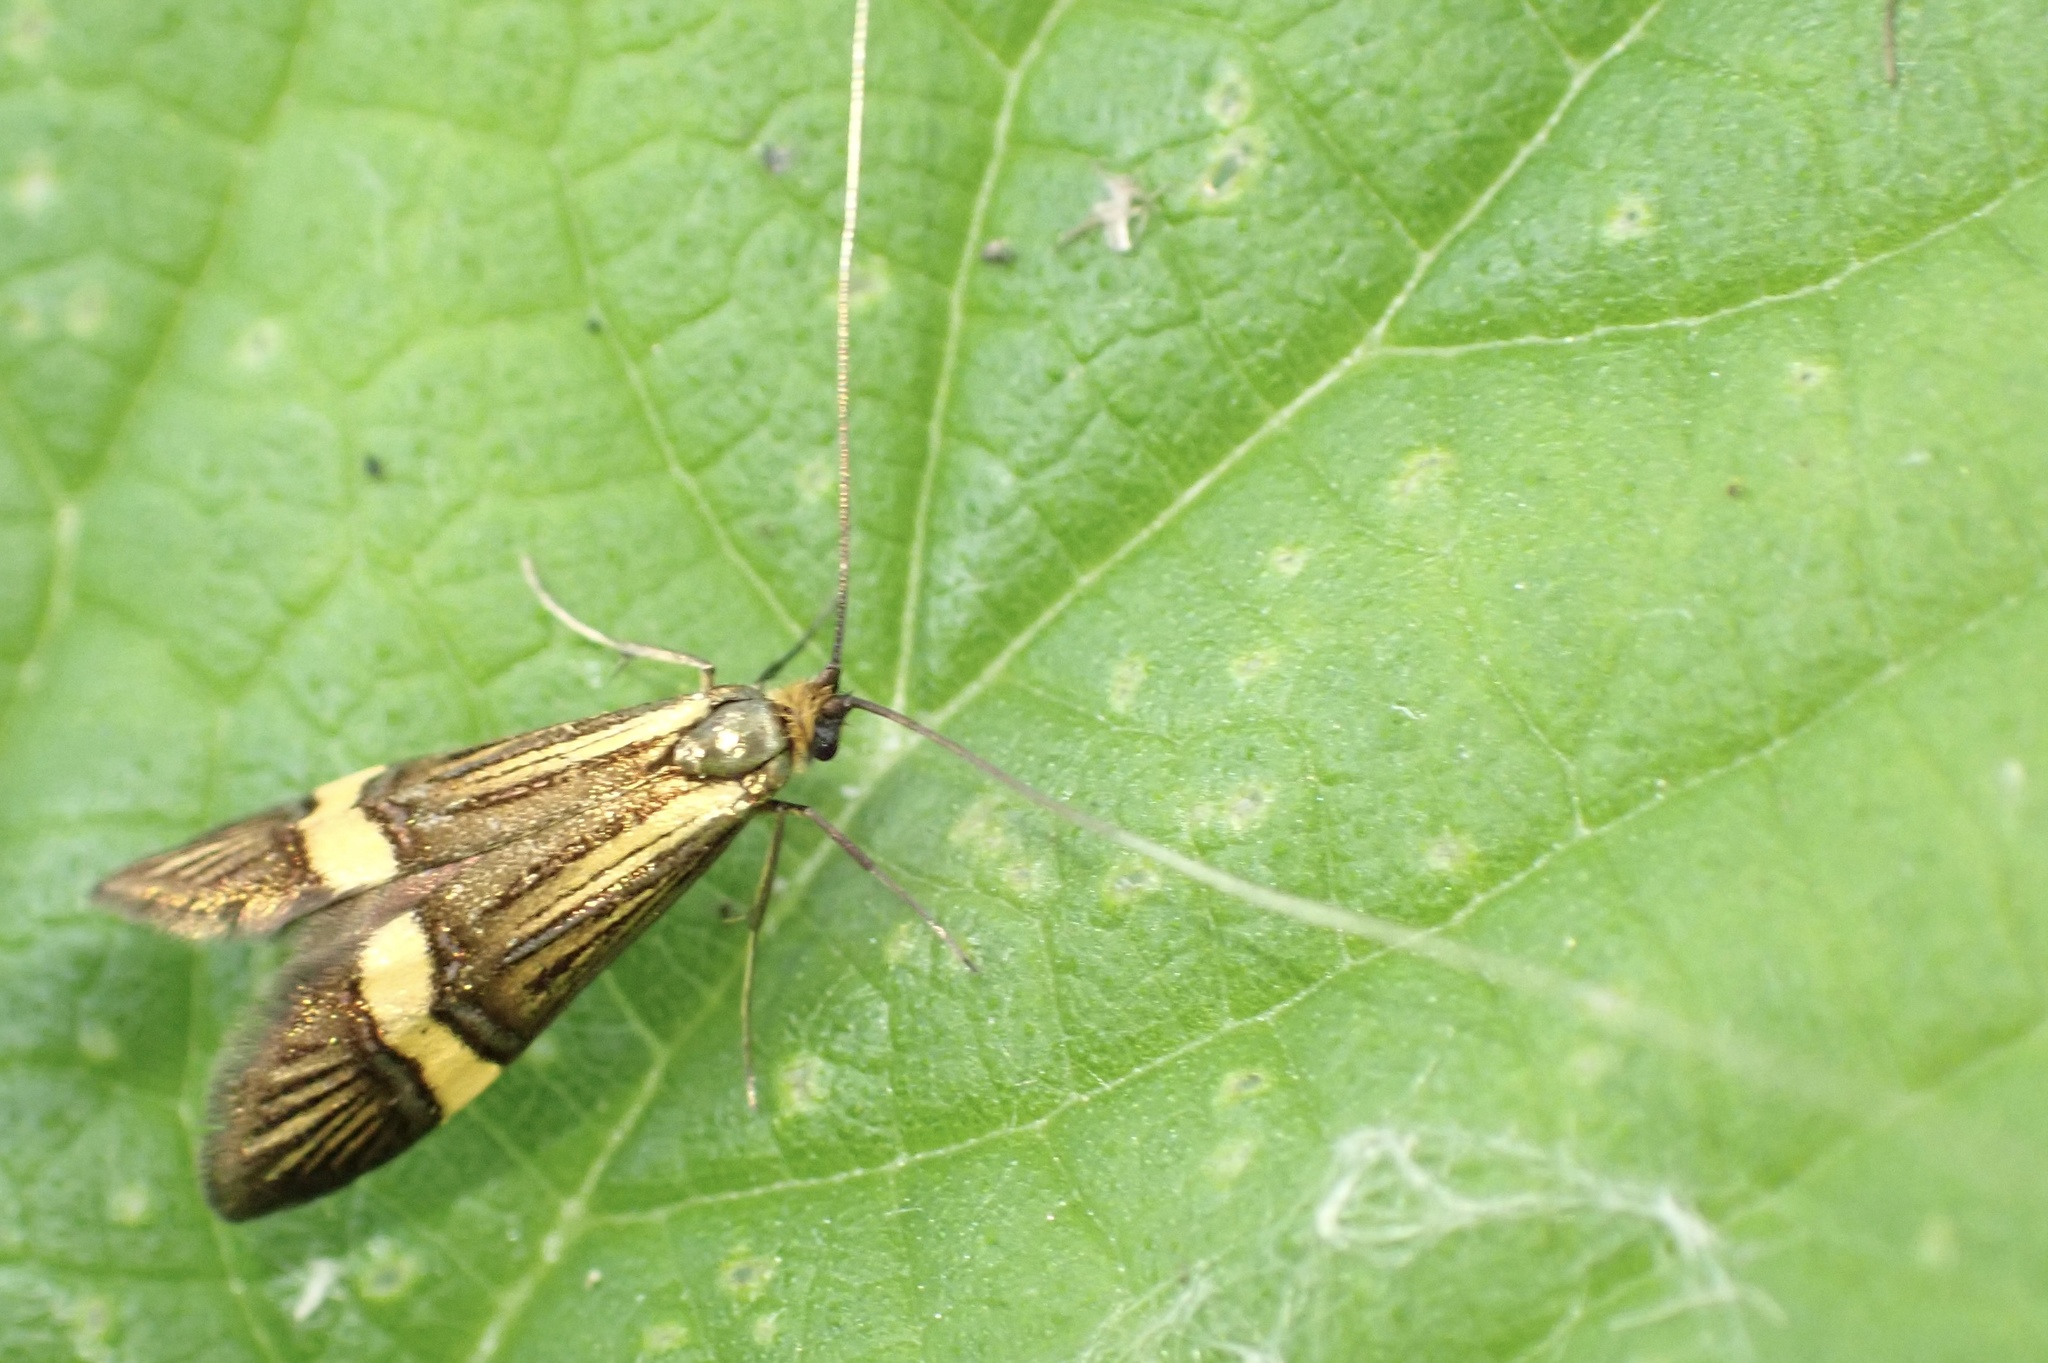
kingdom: Animalia
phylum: Arthropoda
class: Insecta
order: Lepidoptera
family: Adelidae
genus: Nemophora
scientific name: Nemophora degeerella
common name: Yellow-barred long-horn
